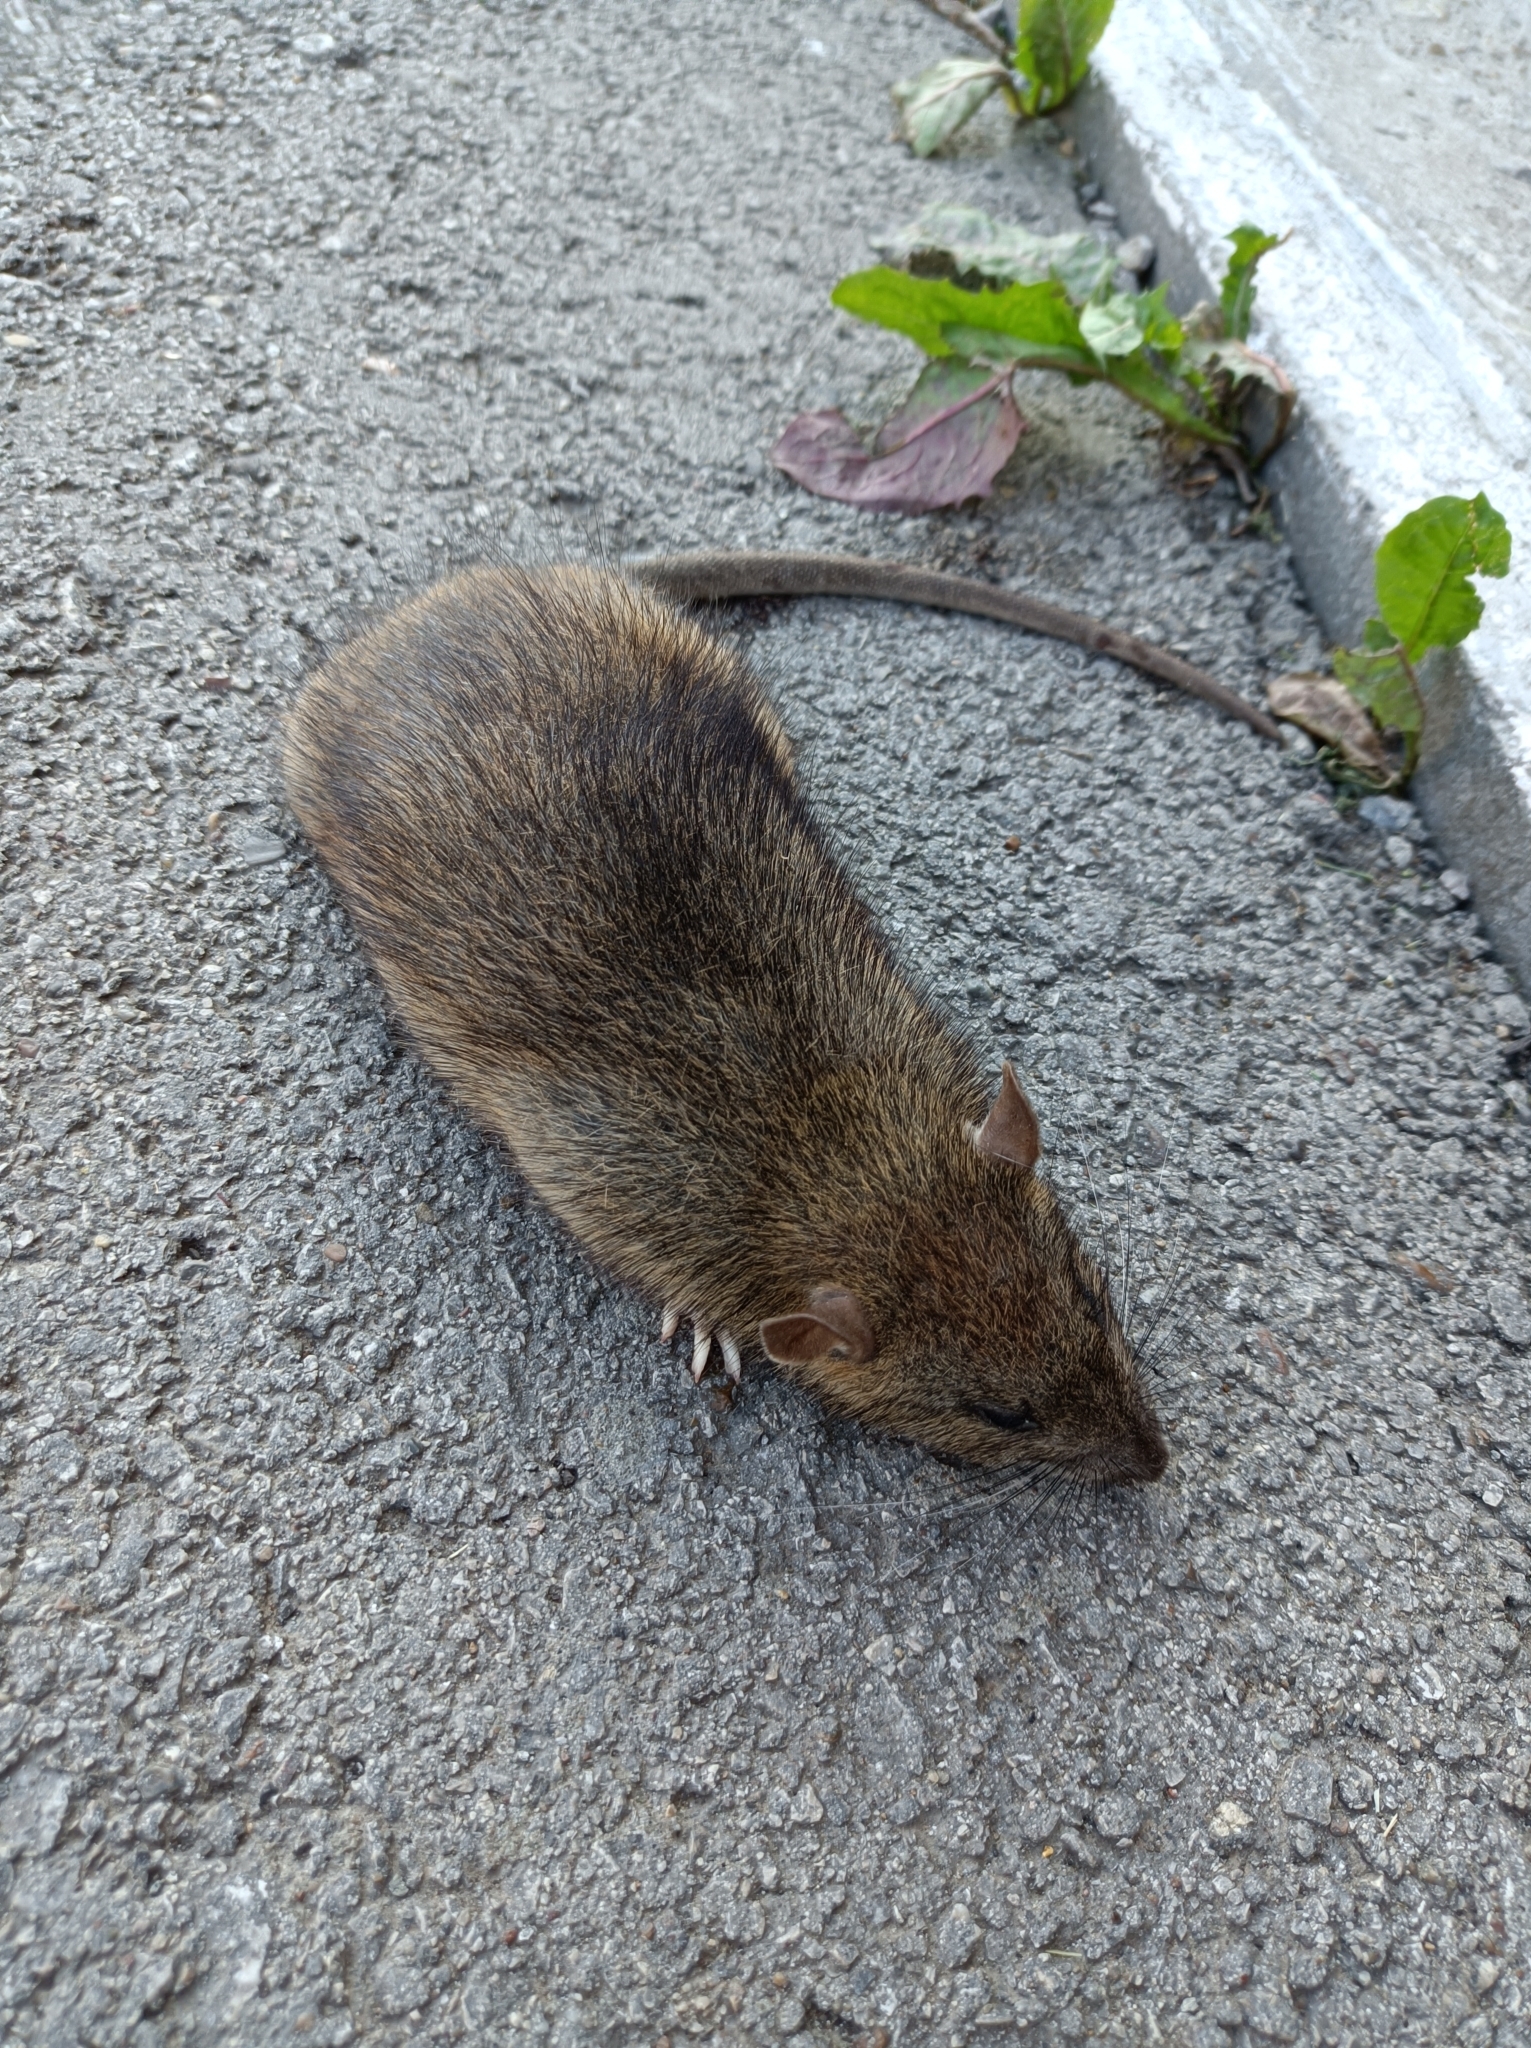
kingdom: Animalia
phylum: Chordata
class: Mammalia
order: Rodentia
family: Muridae
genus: Rattus
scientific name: Rattus norvegicus
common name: Brown rat
